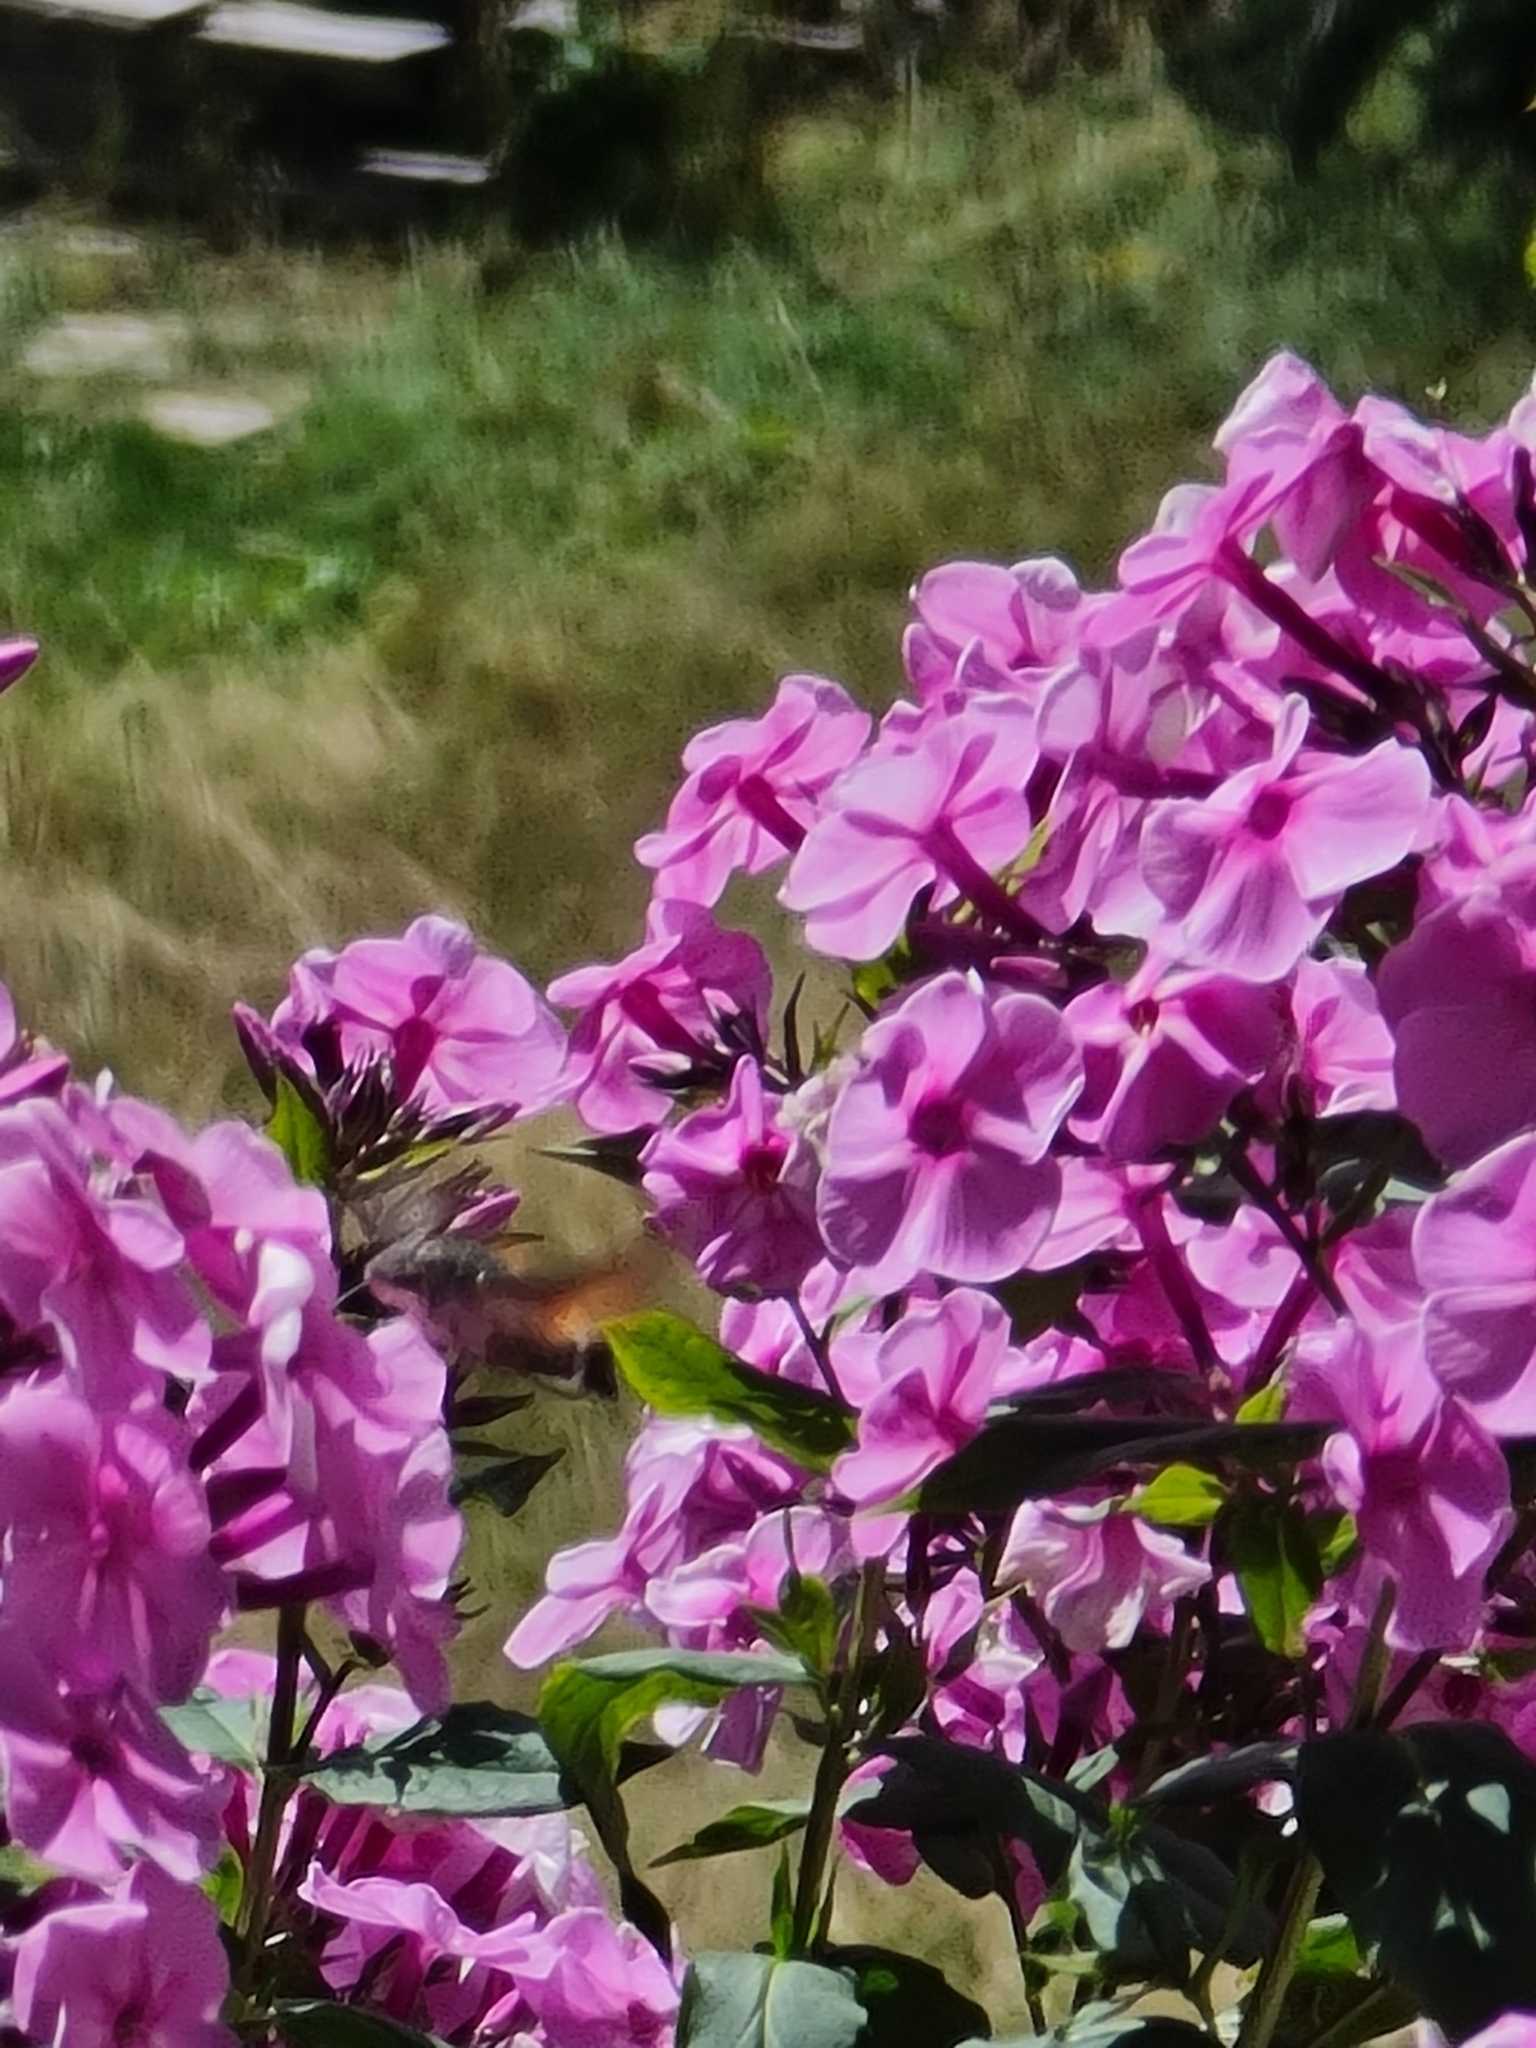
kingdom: Animalia
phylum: Arthropoda
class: Insecta
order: Lepidoptera
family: Sphingidae
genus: Macroglossum
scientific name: Macroglossum stellatarum
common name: Humming-bird hawk-moth
